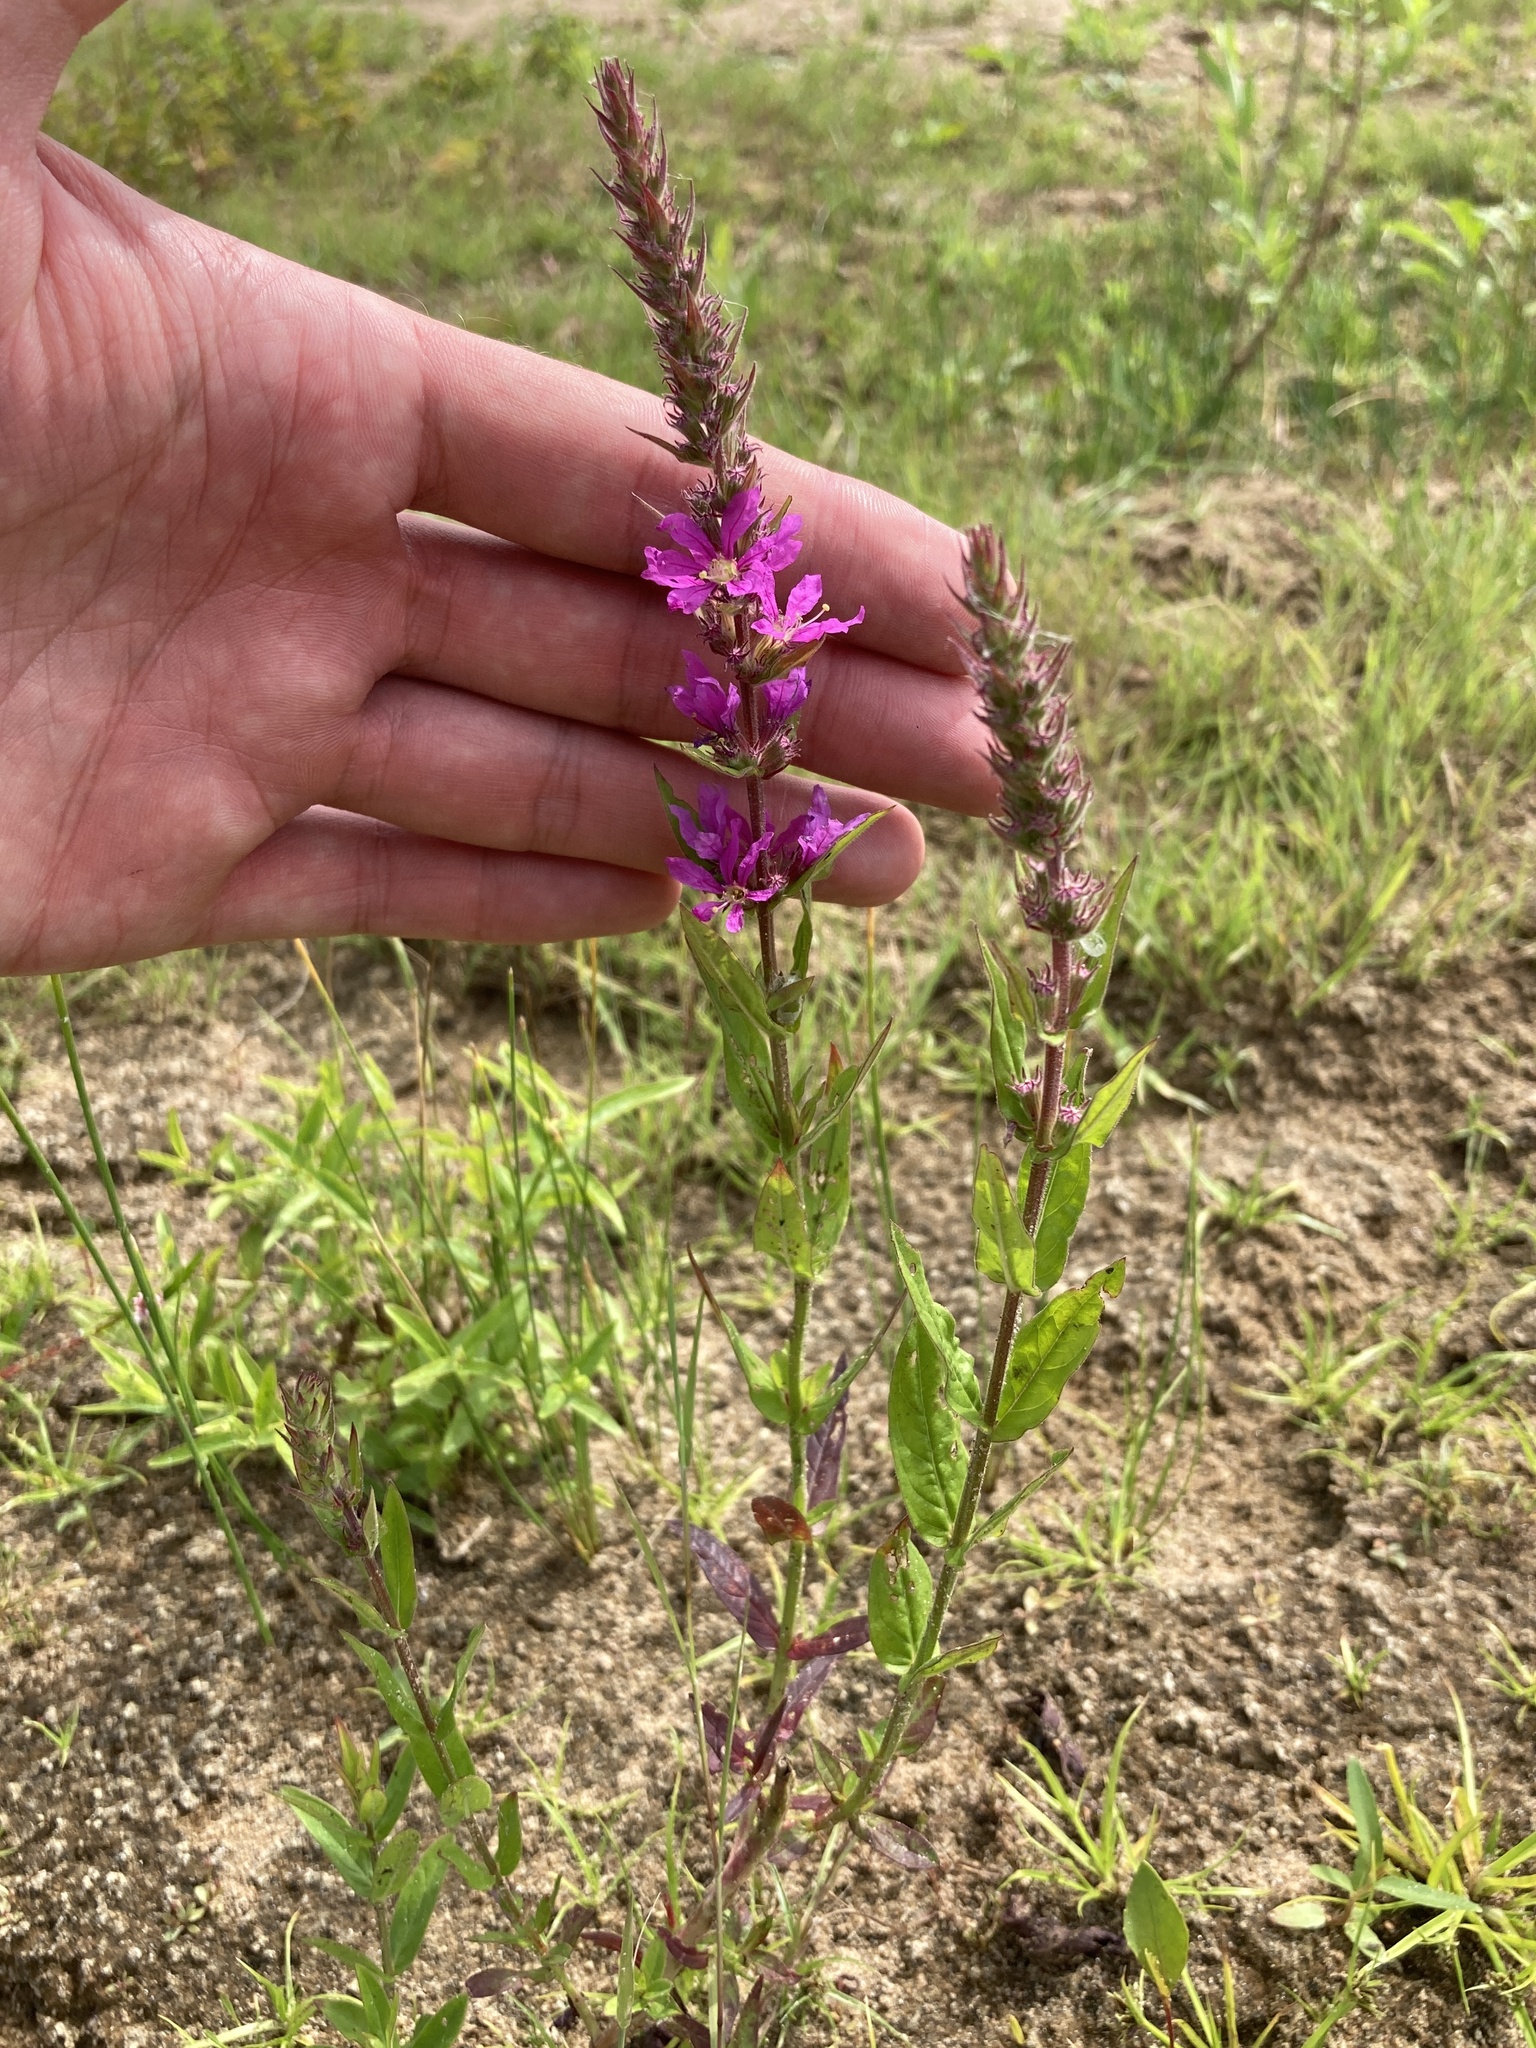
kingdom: Plantae
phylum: Tracheophyta
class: Magnoliopsida
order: Myrtales
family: Lythraceae
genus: Lythrum
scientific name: Lythrum salicaria
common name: Purple loosestrife
